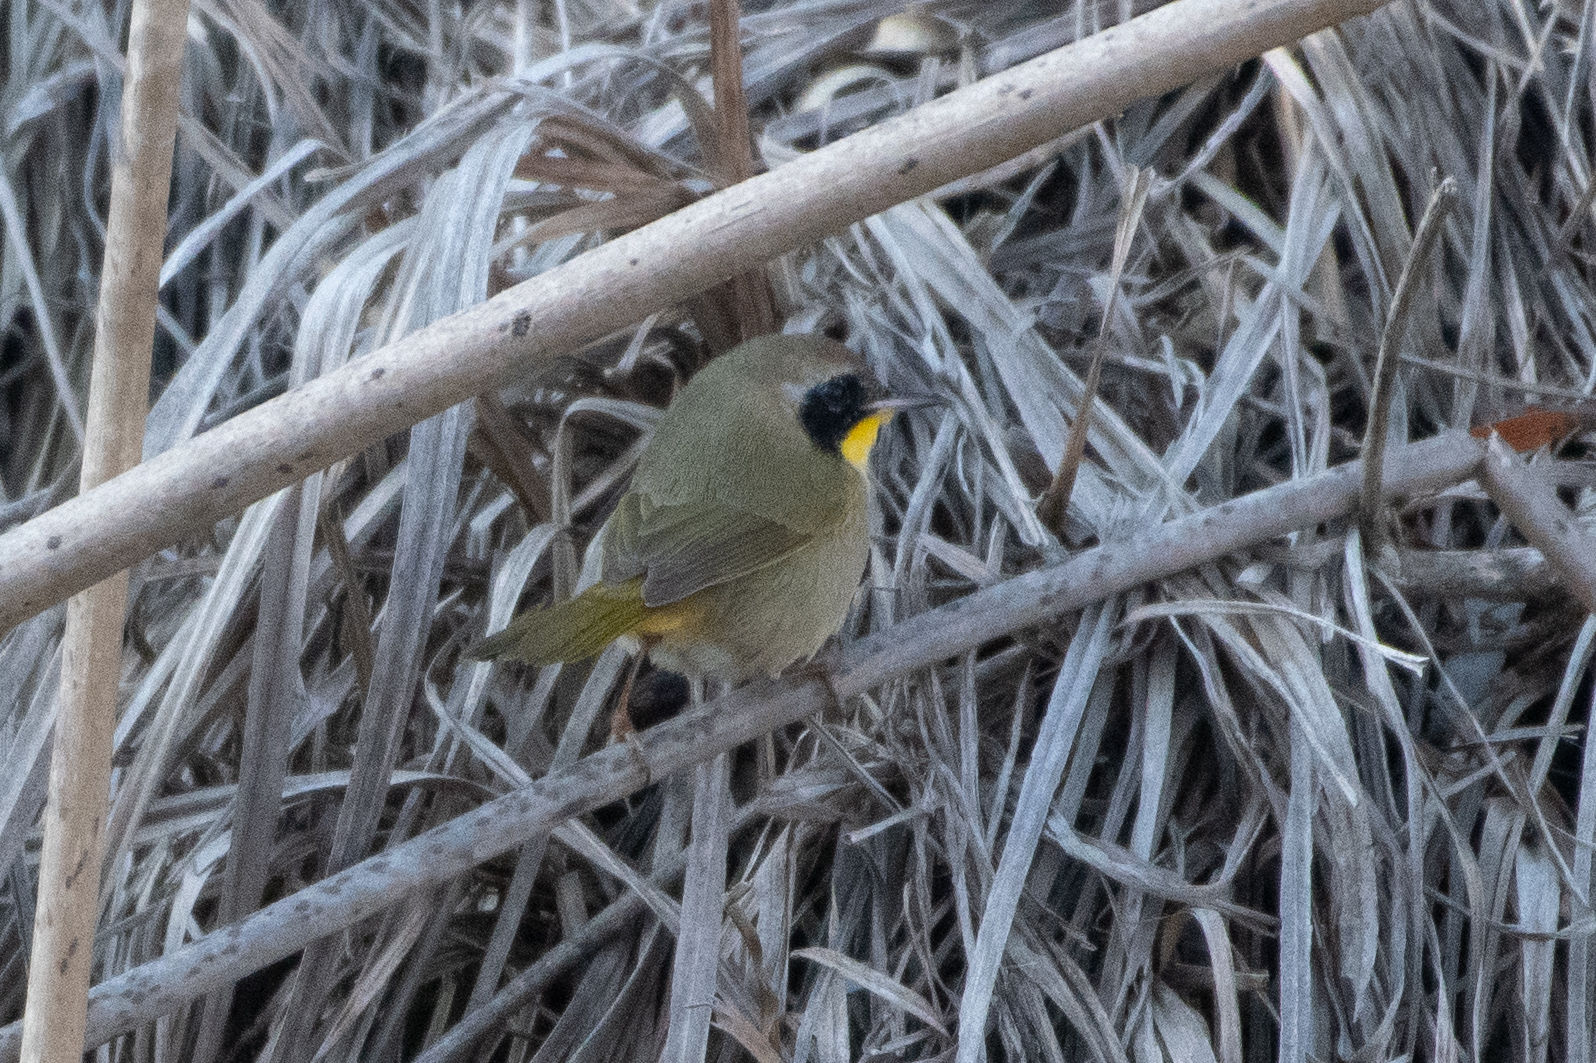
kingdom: Animalia
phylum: Chordata
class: Aves
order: Passeriformes
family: Parulidae
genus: Geothlypis
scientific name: Geothlypis trichas
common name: Common yellowthroat
